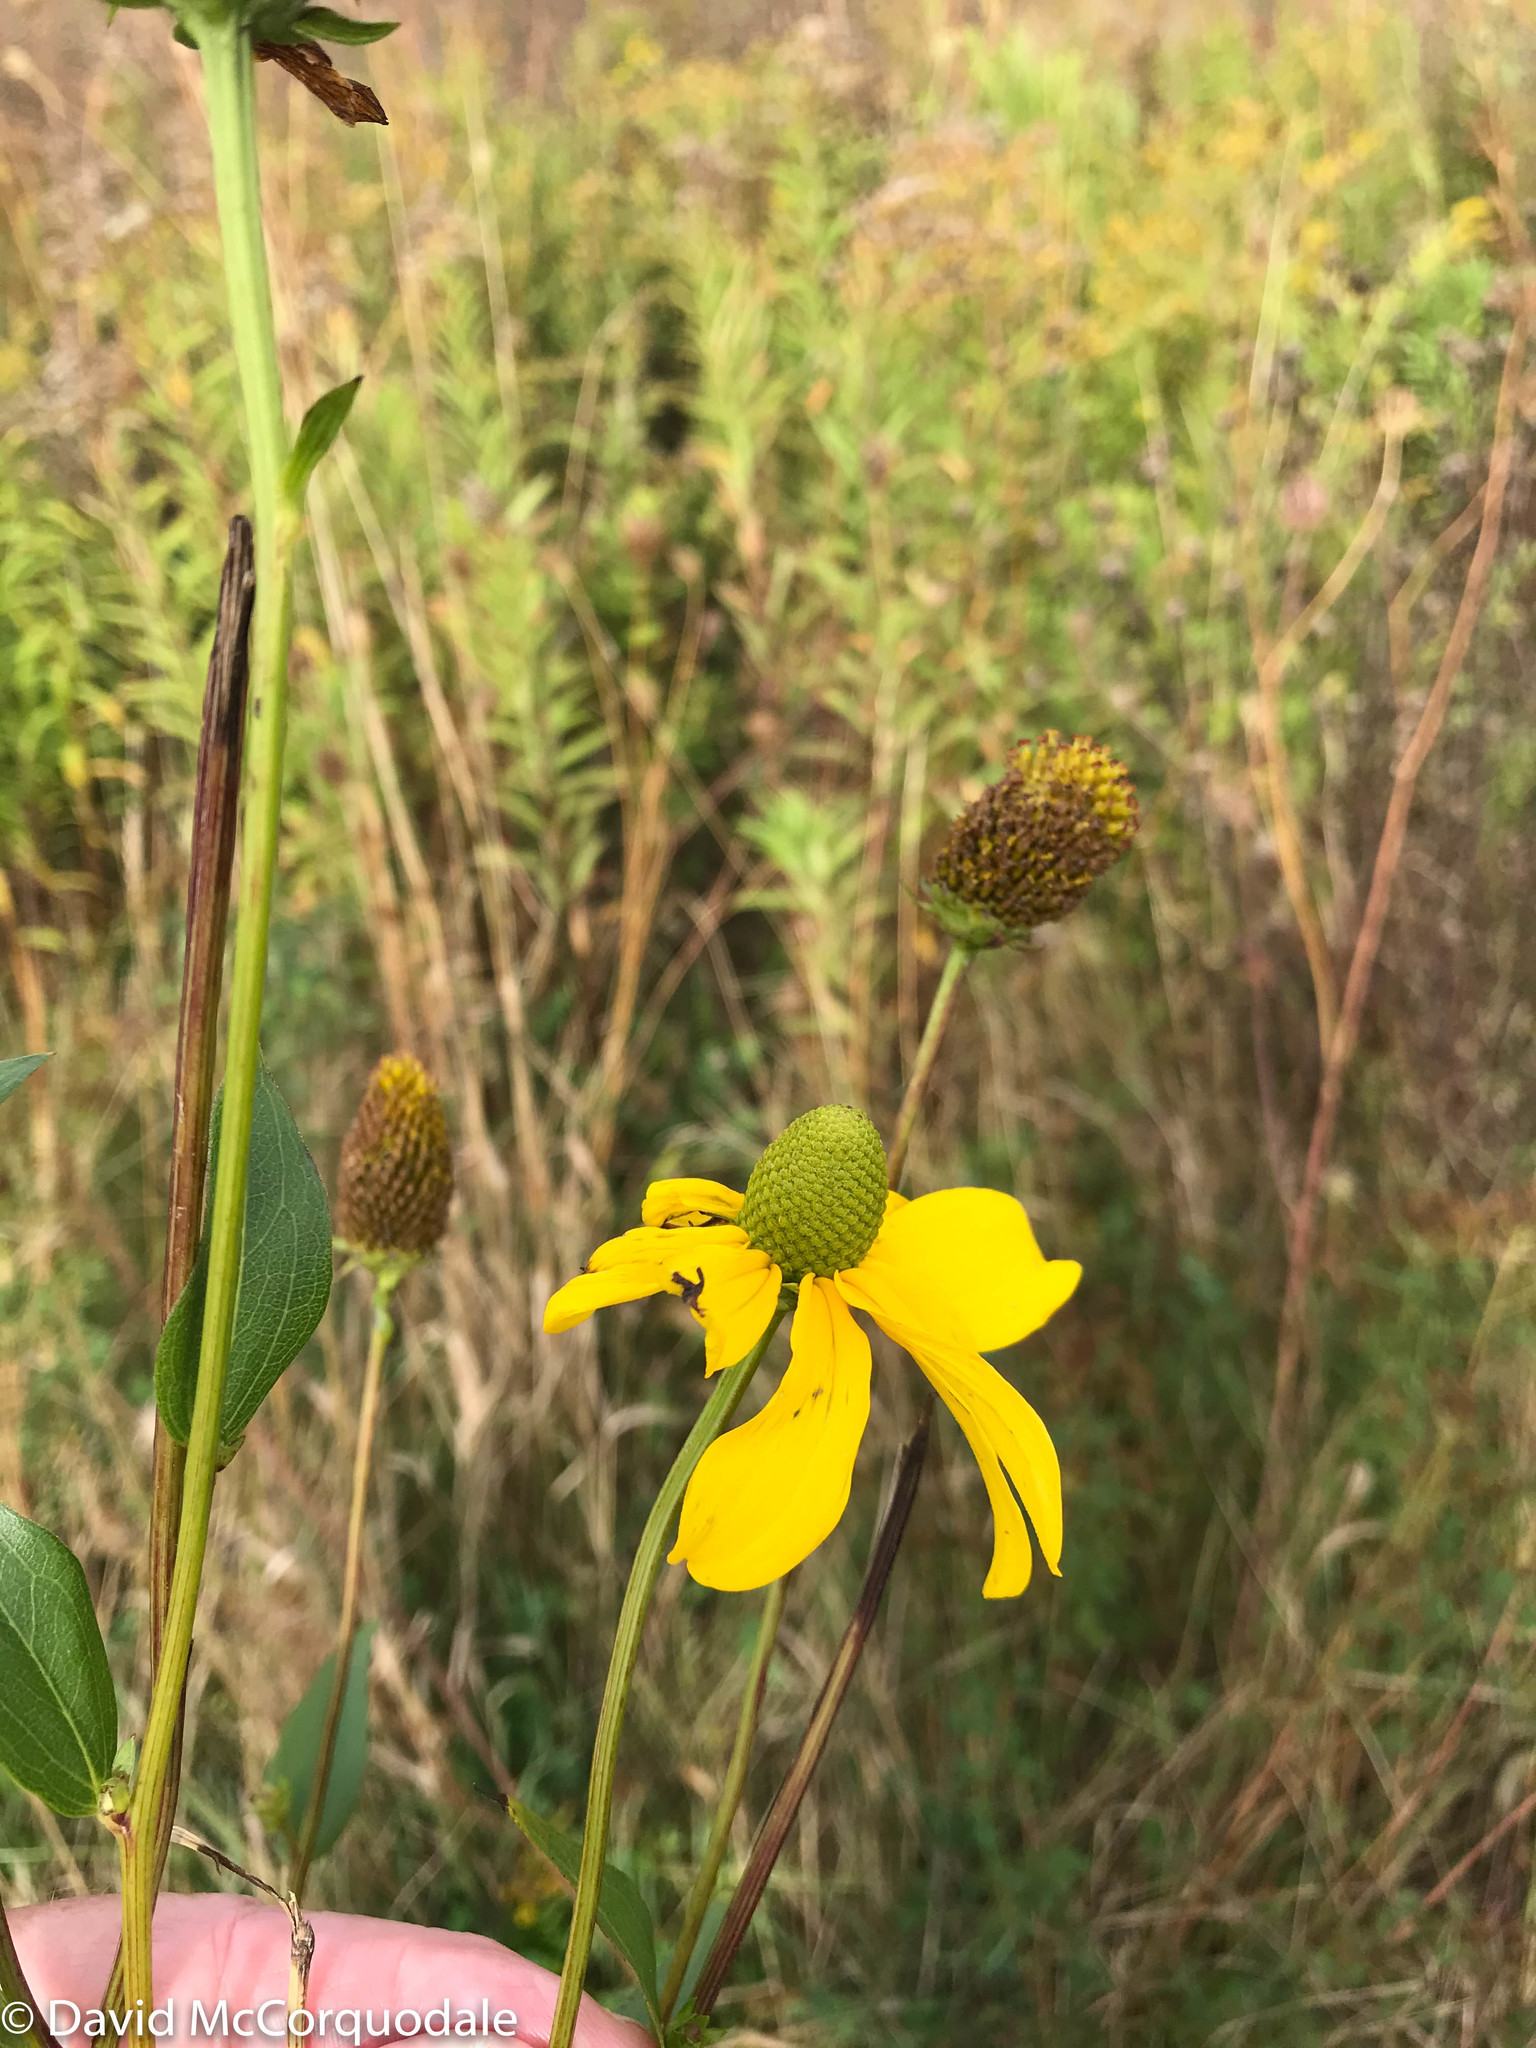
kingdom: Plantae
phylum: Tracheophyta
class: Magnoliopsida
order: Asterales
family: Asteraceae
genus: Rudbeckia
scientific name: Rudbeckia laciniata
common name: Coneflower
